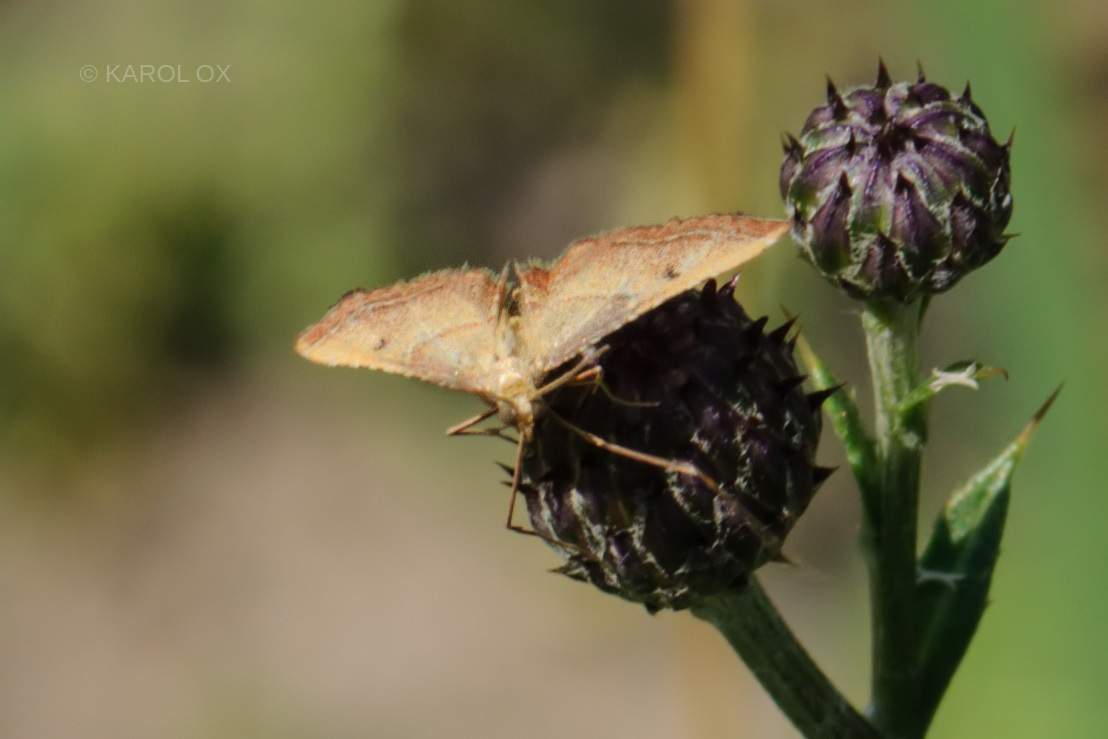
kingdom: Animalia
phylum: Arthropoda
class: Insecta
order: Lepidoptera
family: Pyralidae
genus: Endotricha
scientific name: Endotricha flammealis
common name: Rosy tabby
